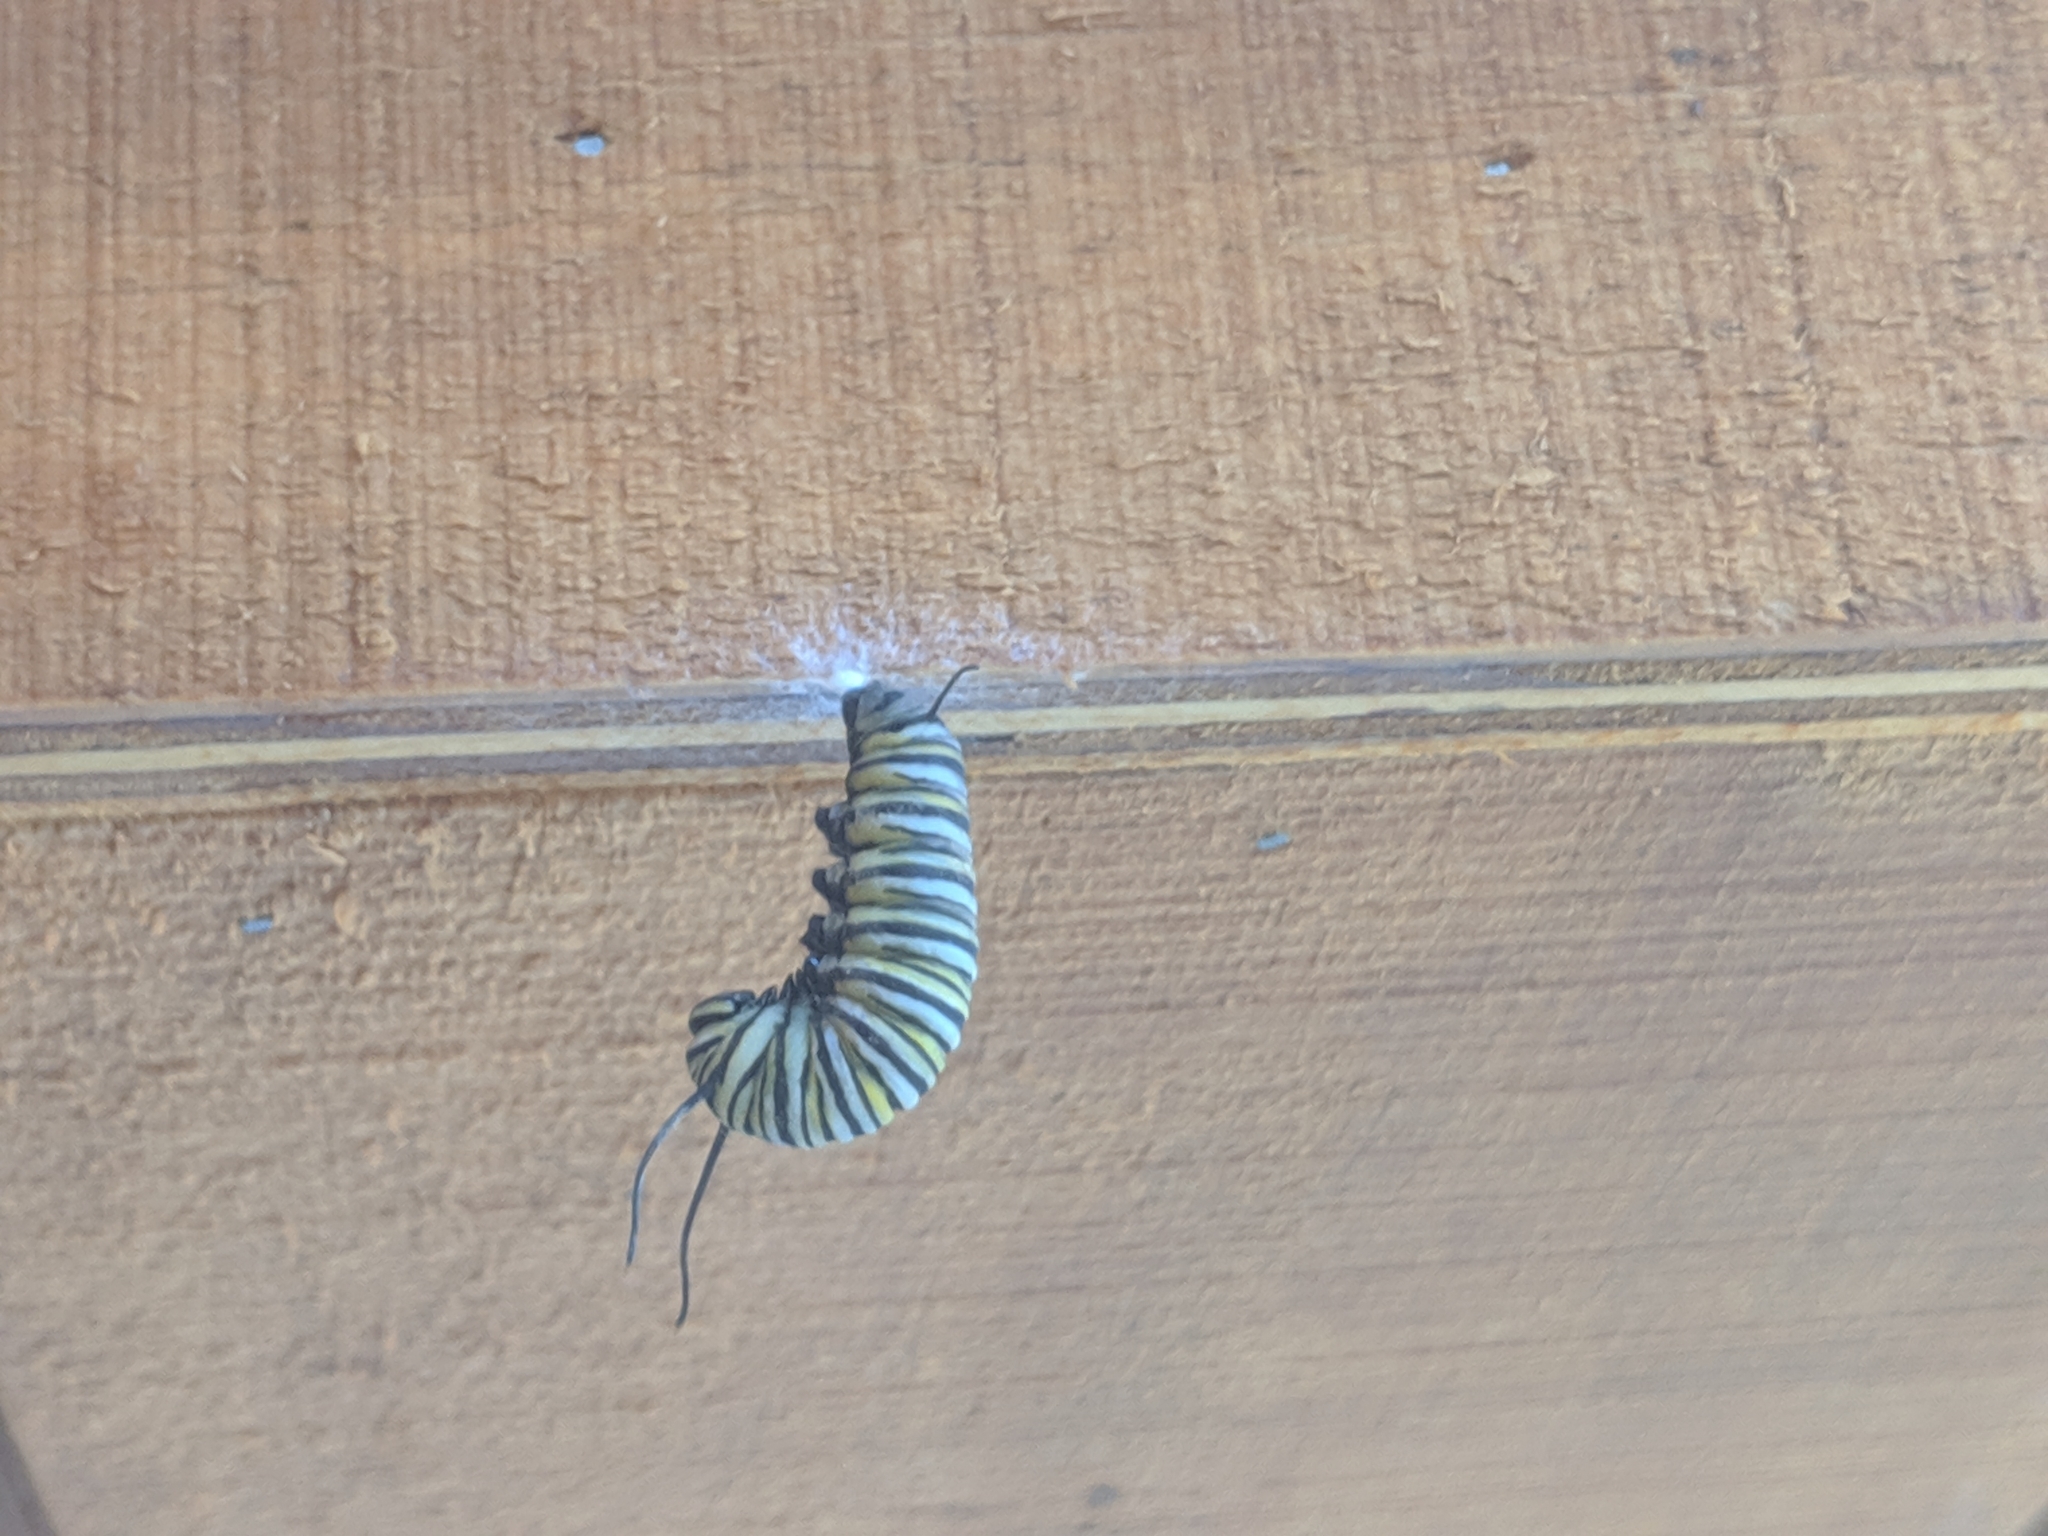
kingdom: Animalia
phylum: Arthropoda
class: Insecta
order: Lepidoptera
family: Nymphalidae
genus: Danaus
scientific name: Danaus plexippus
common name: Monarch
